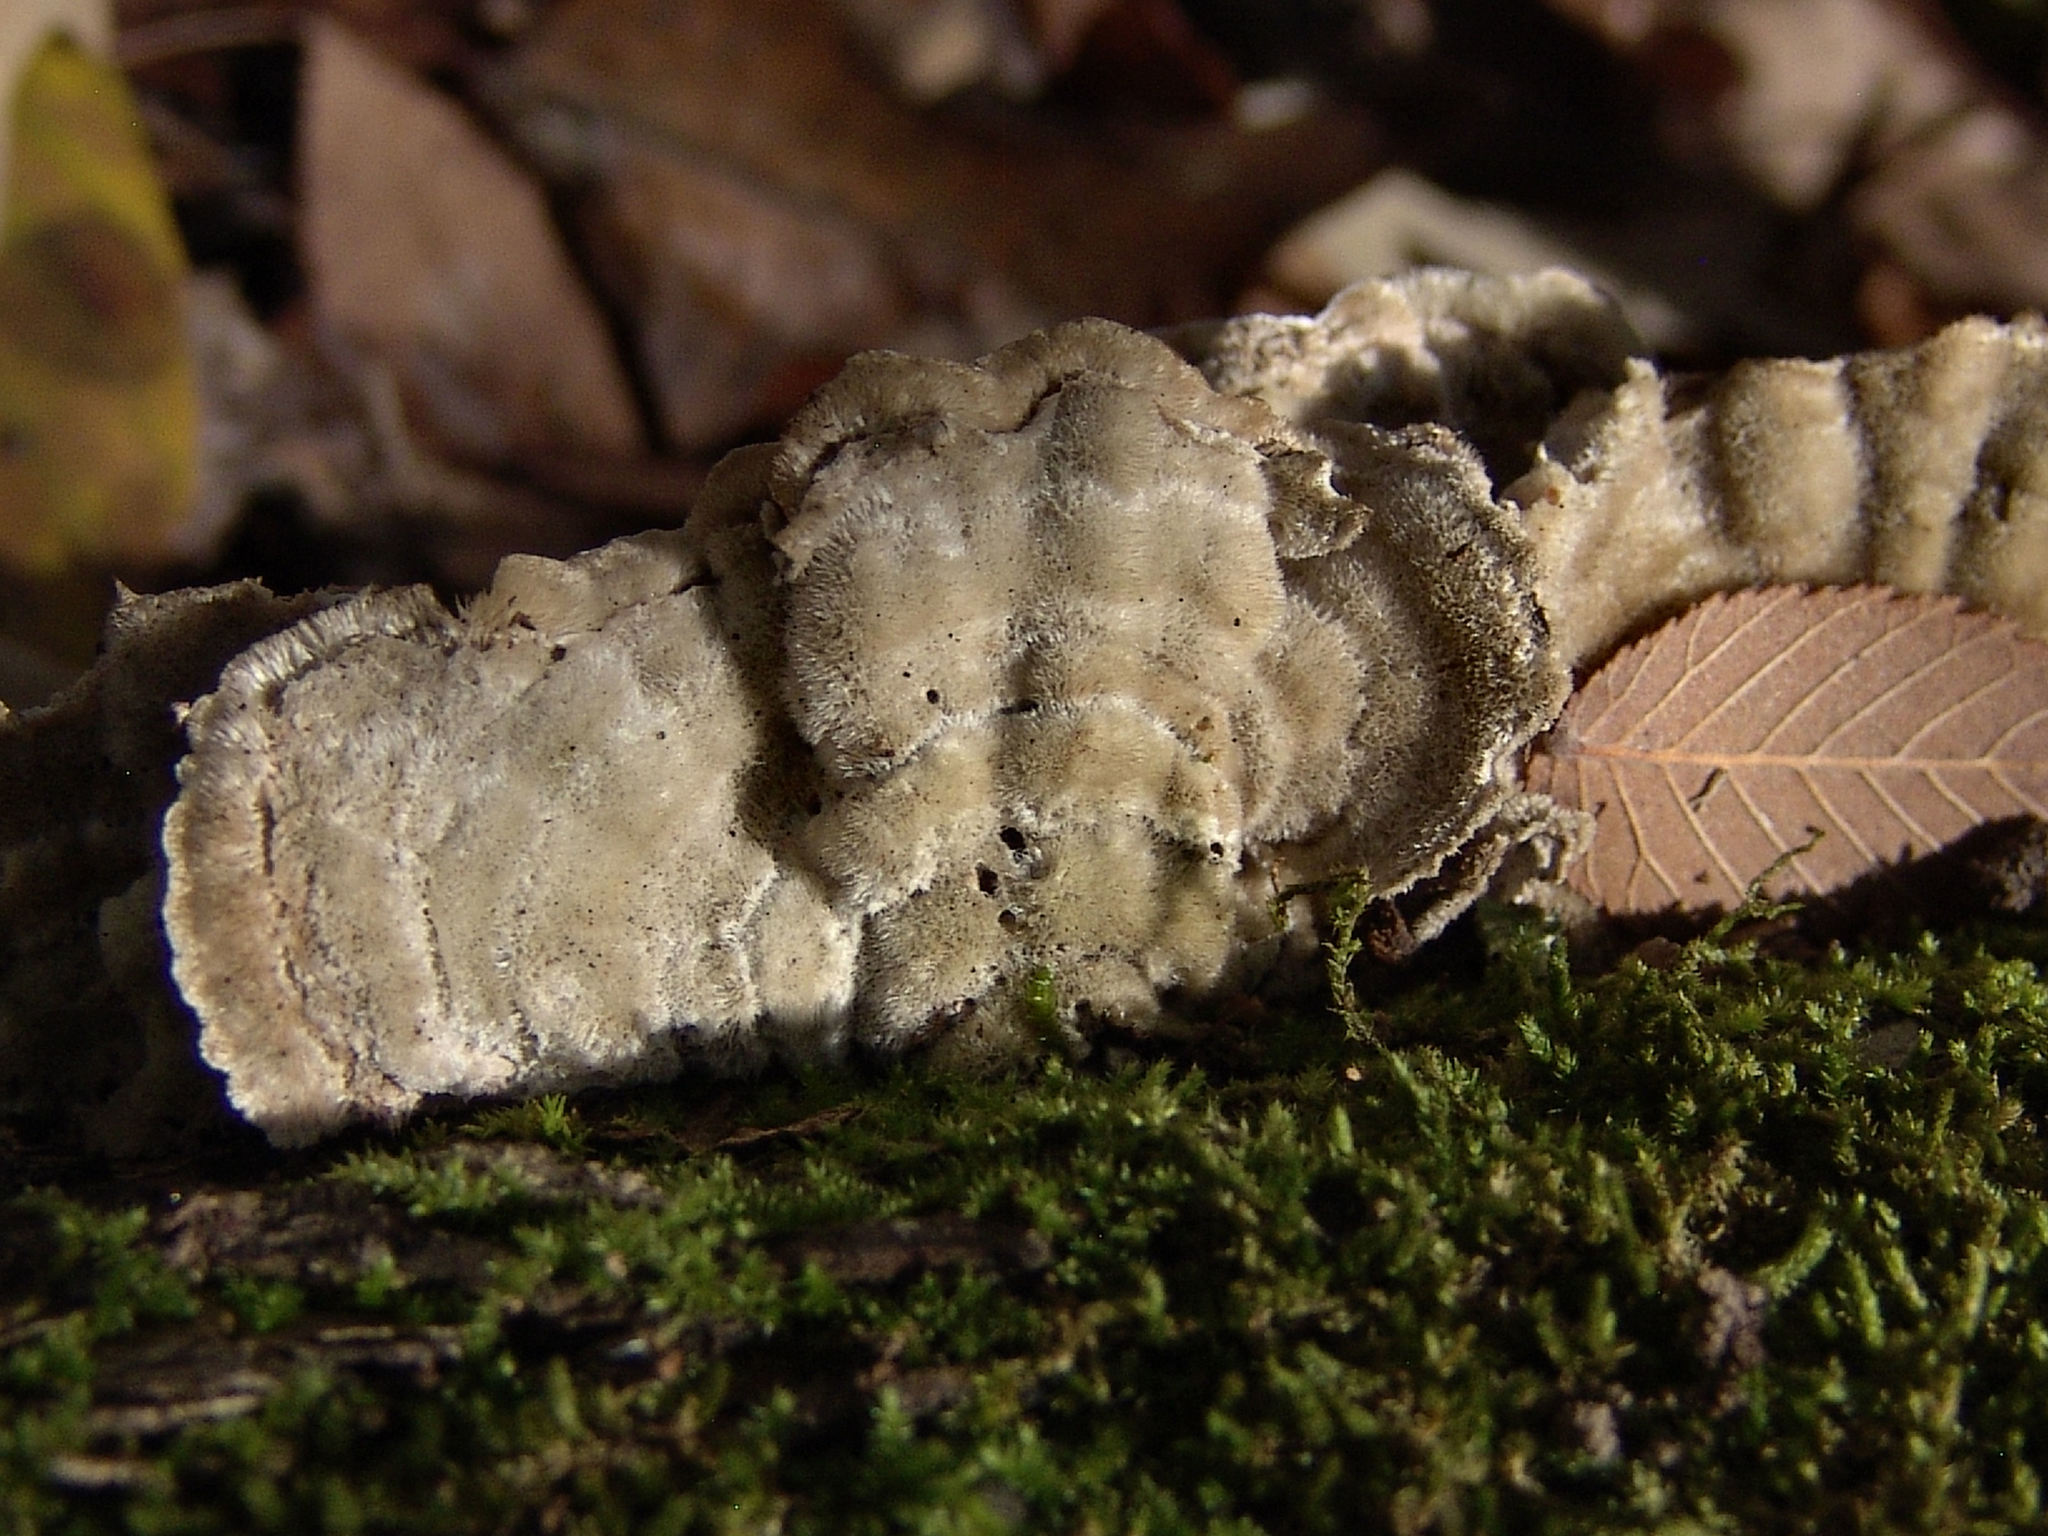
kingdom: Fungi
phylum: Basidiomycota
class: Agaricomycetes
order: Polyporales
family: Cerrenaceae
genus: Cerrena
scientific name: Cerrena unicolor
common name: Mossy maze polypore
